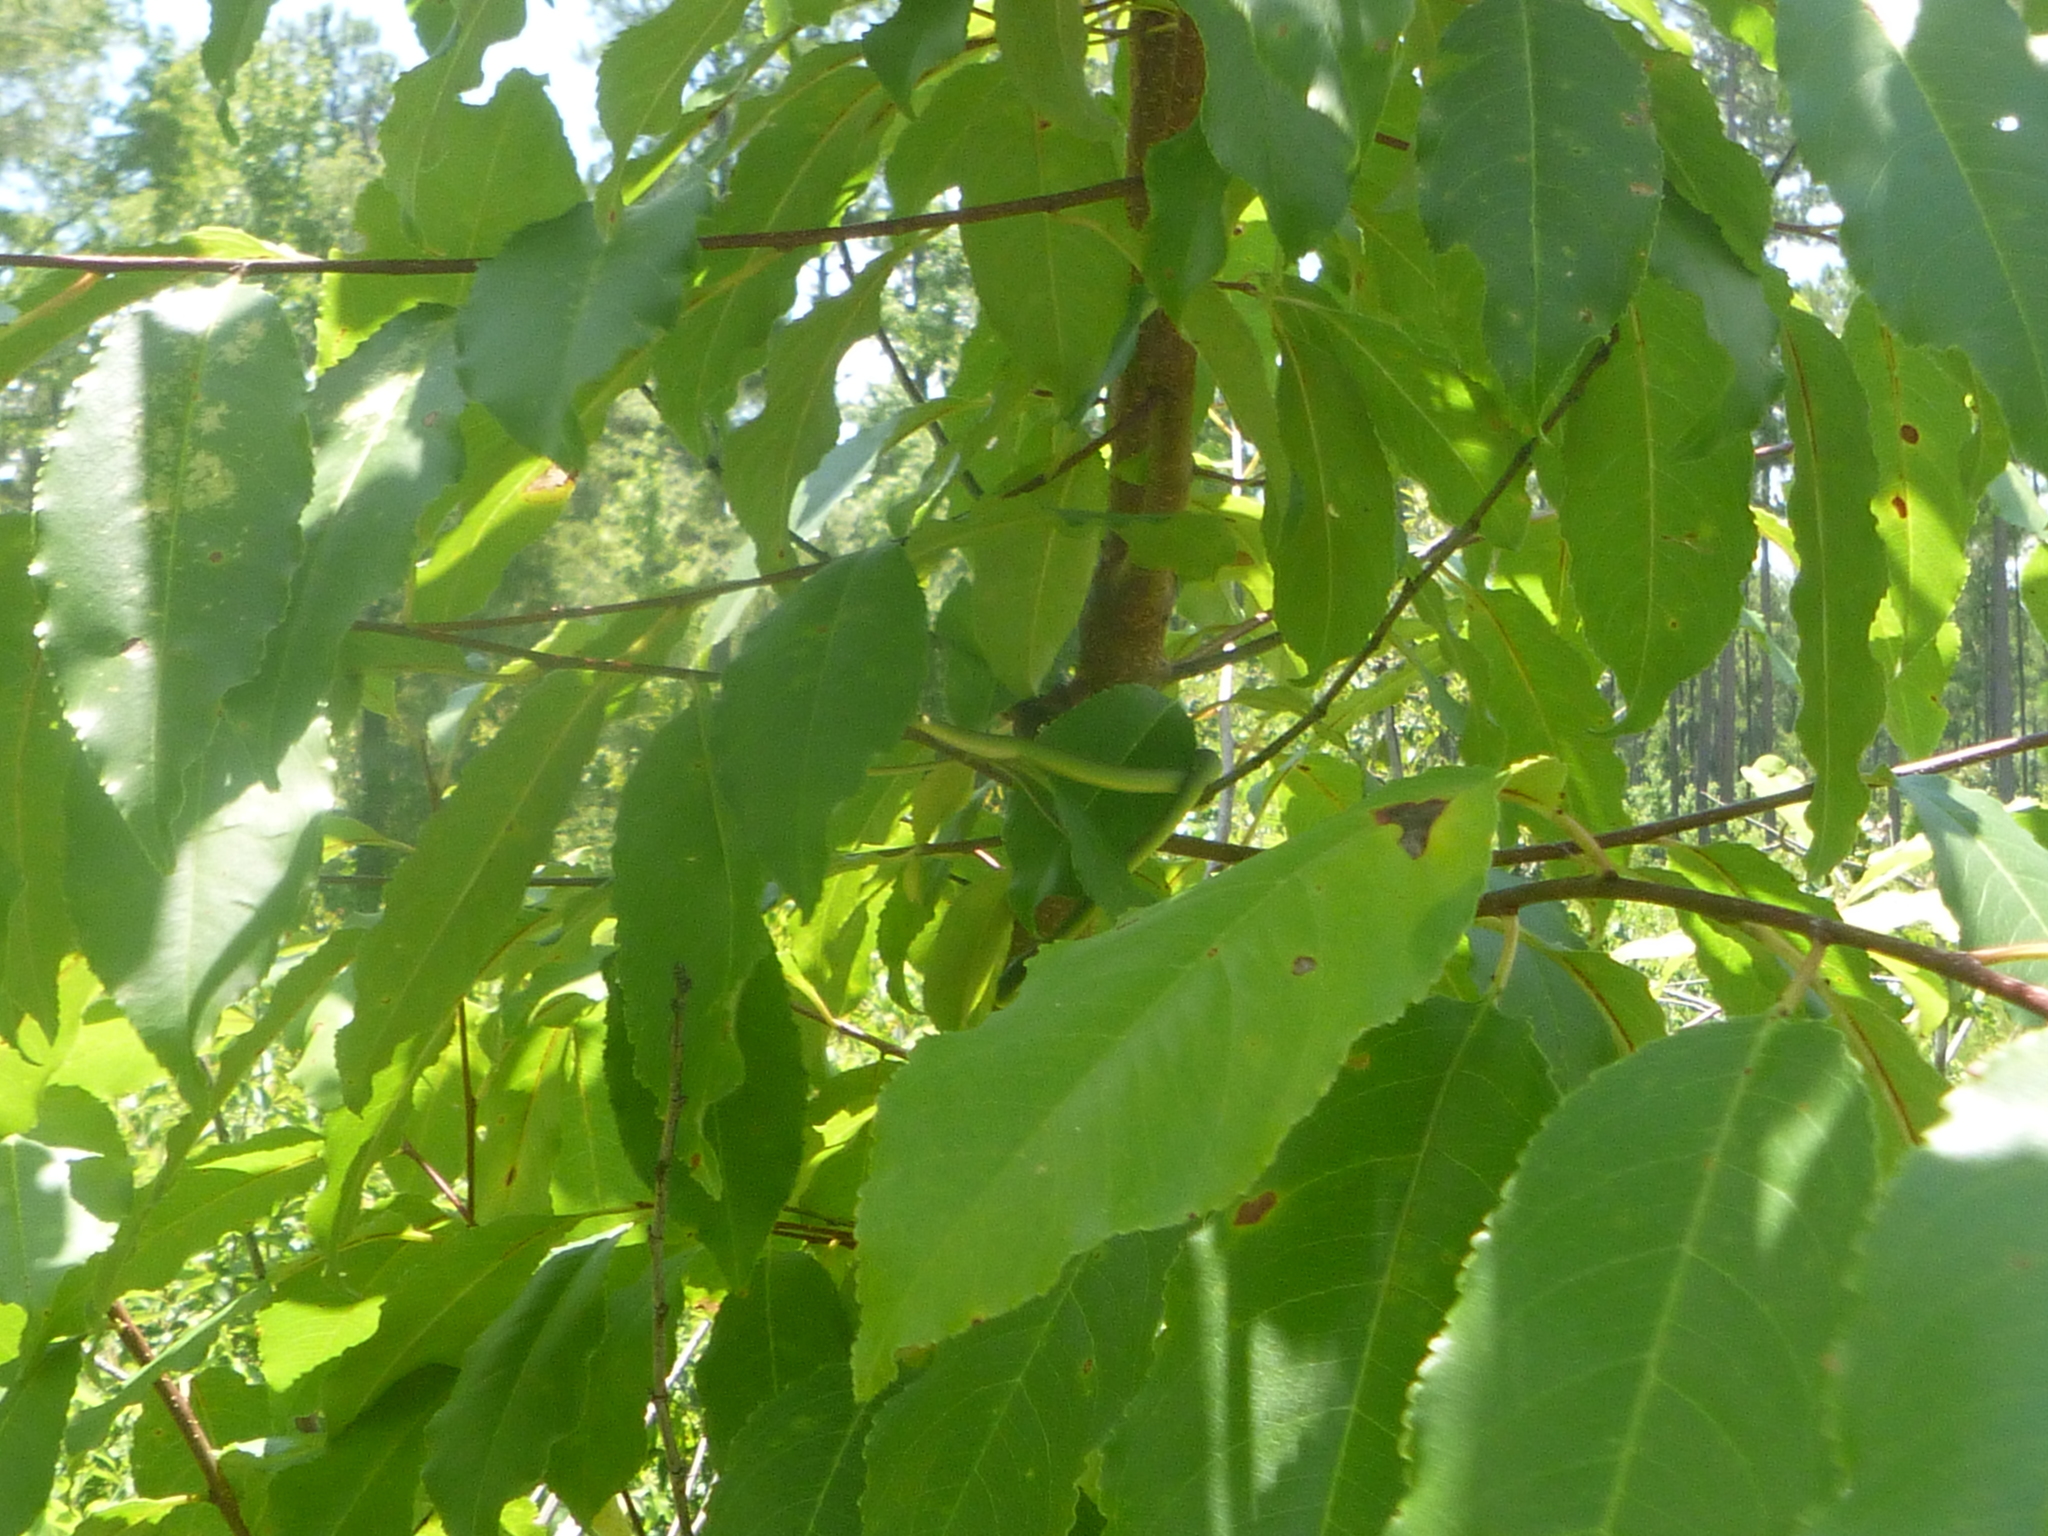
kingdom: Animalia
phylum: Chordata
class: Squamata
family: Colubridae
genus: Opheodrys
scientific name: Opheodrys aestivus
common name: Rough greensnake
